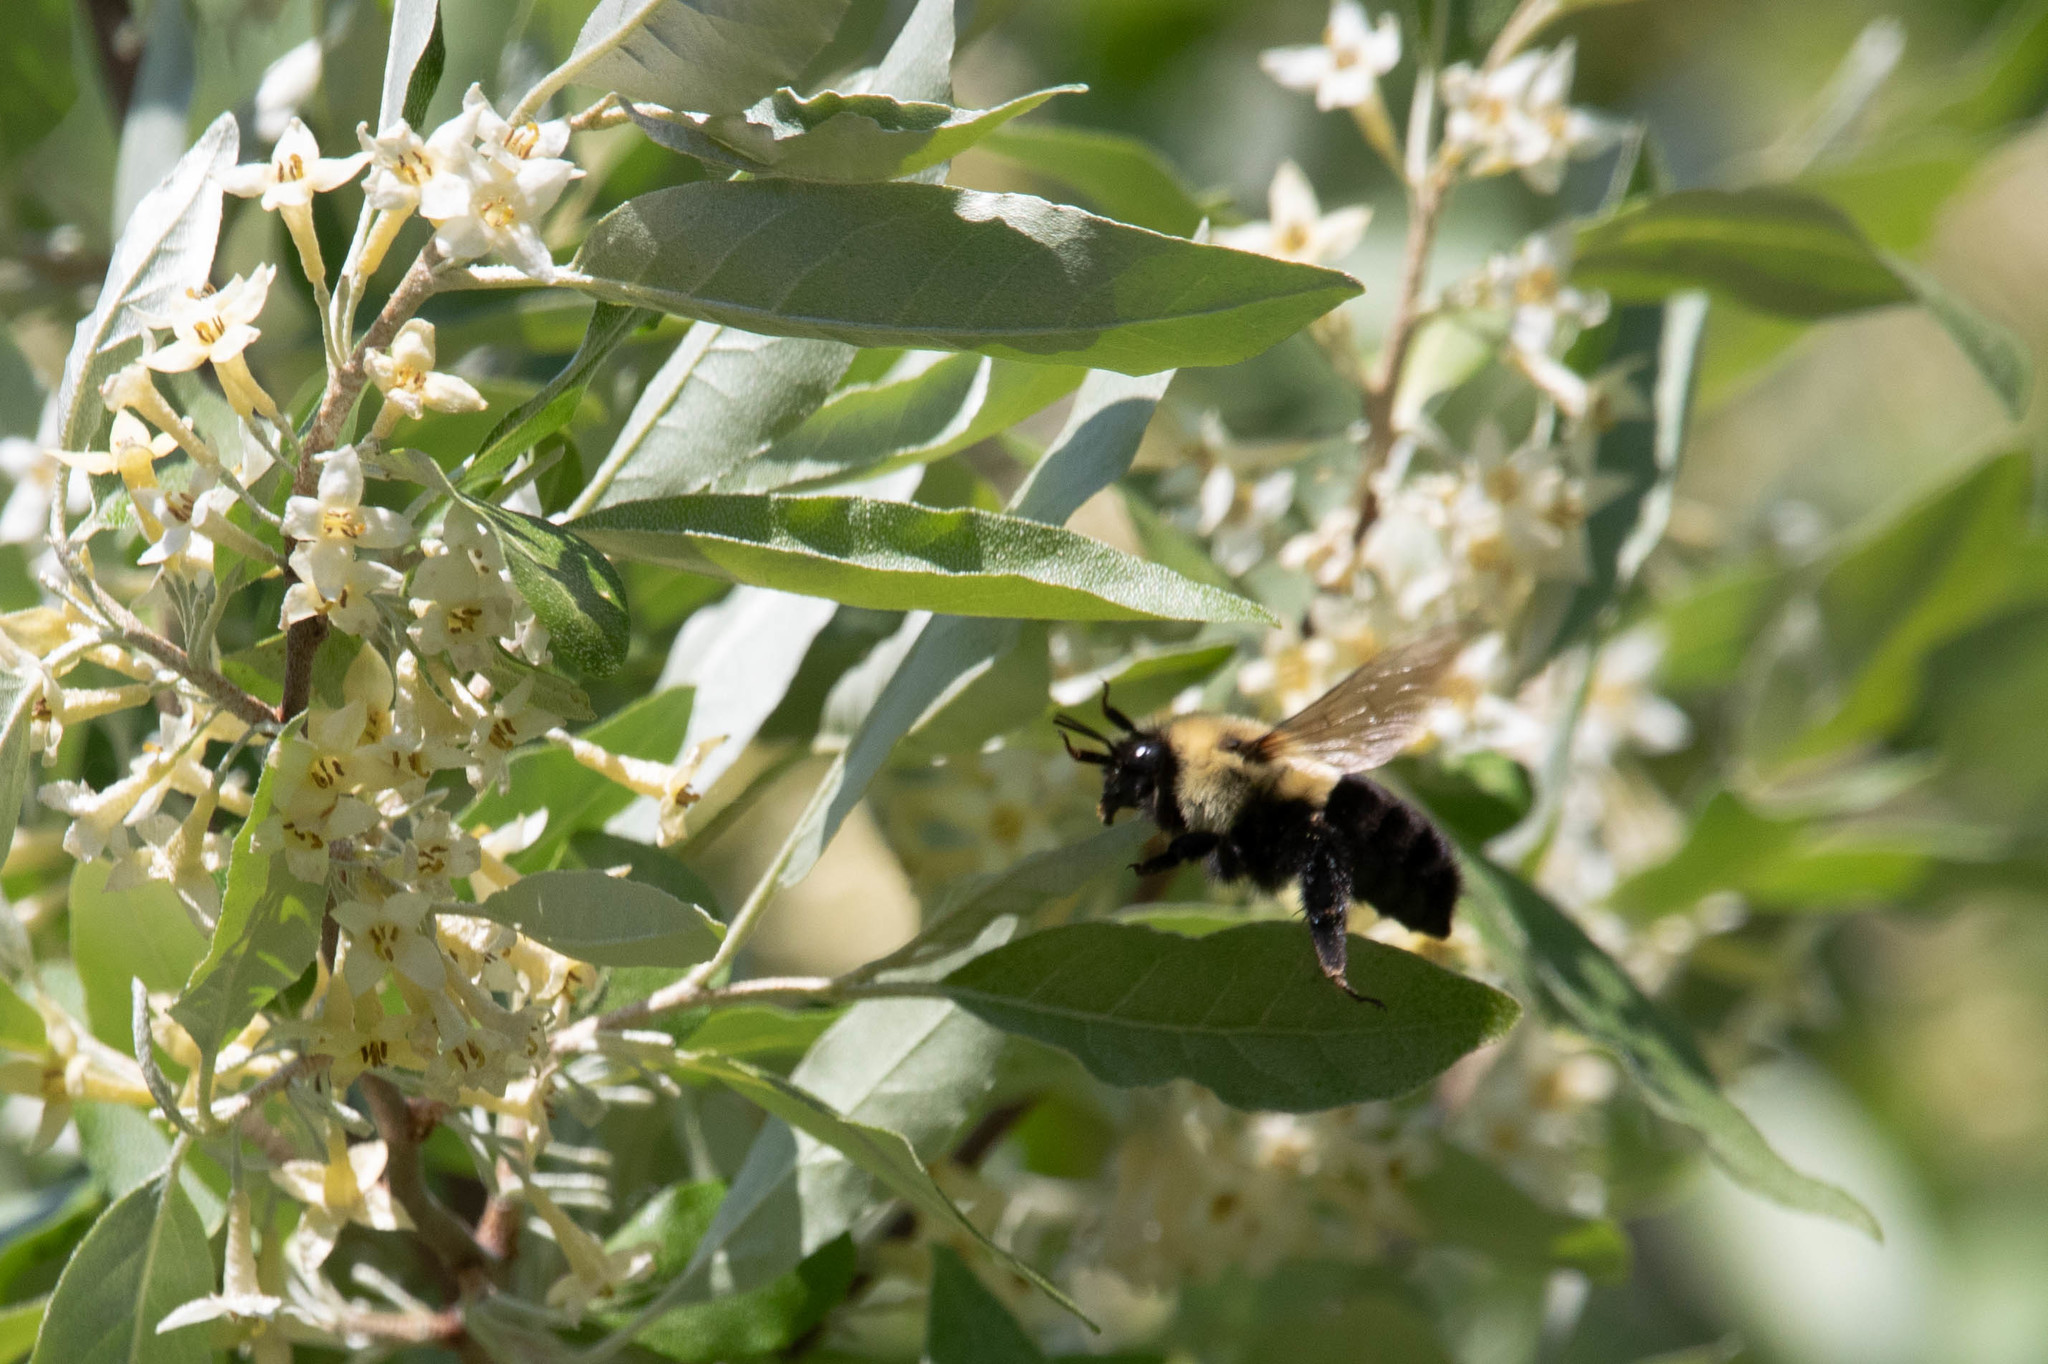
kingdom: Animalia
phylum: Arthropoda
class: Insecta
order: Hymenoptera
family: Apidae
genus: Bombus
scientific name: Bombus impatiens
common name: Common eastern bumble bee
